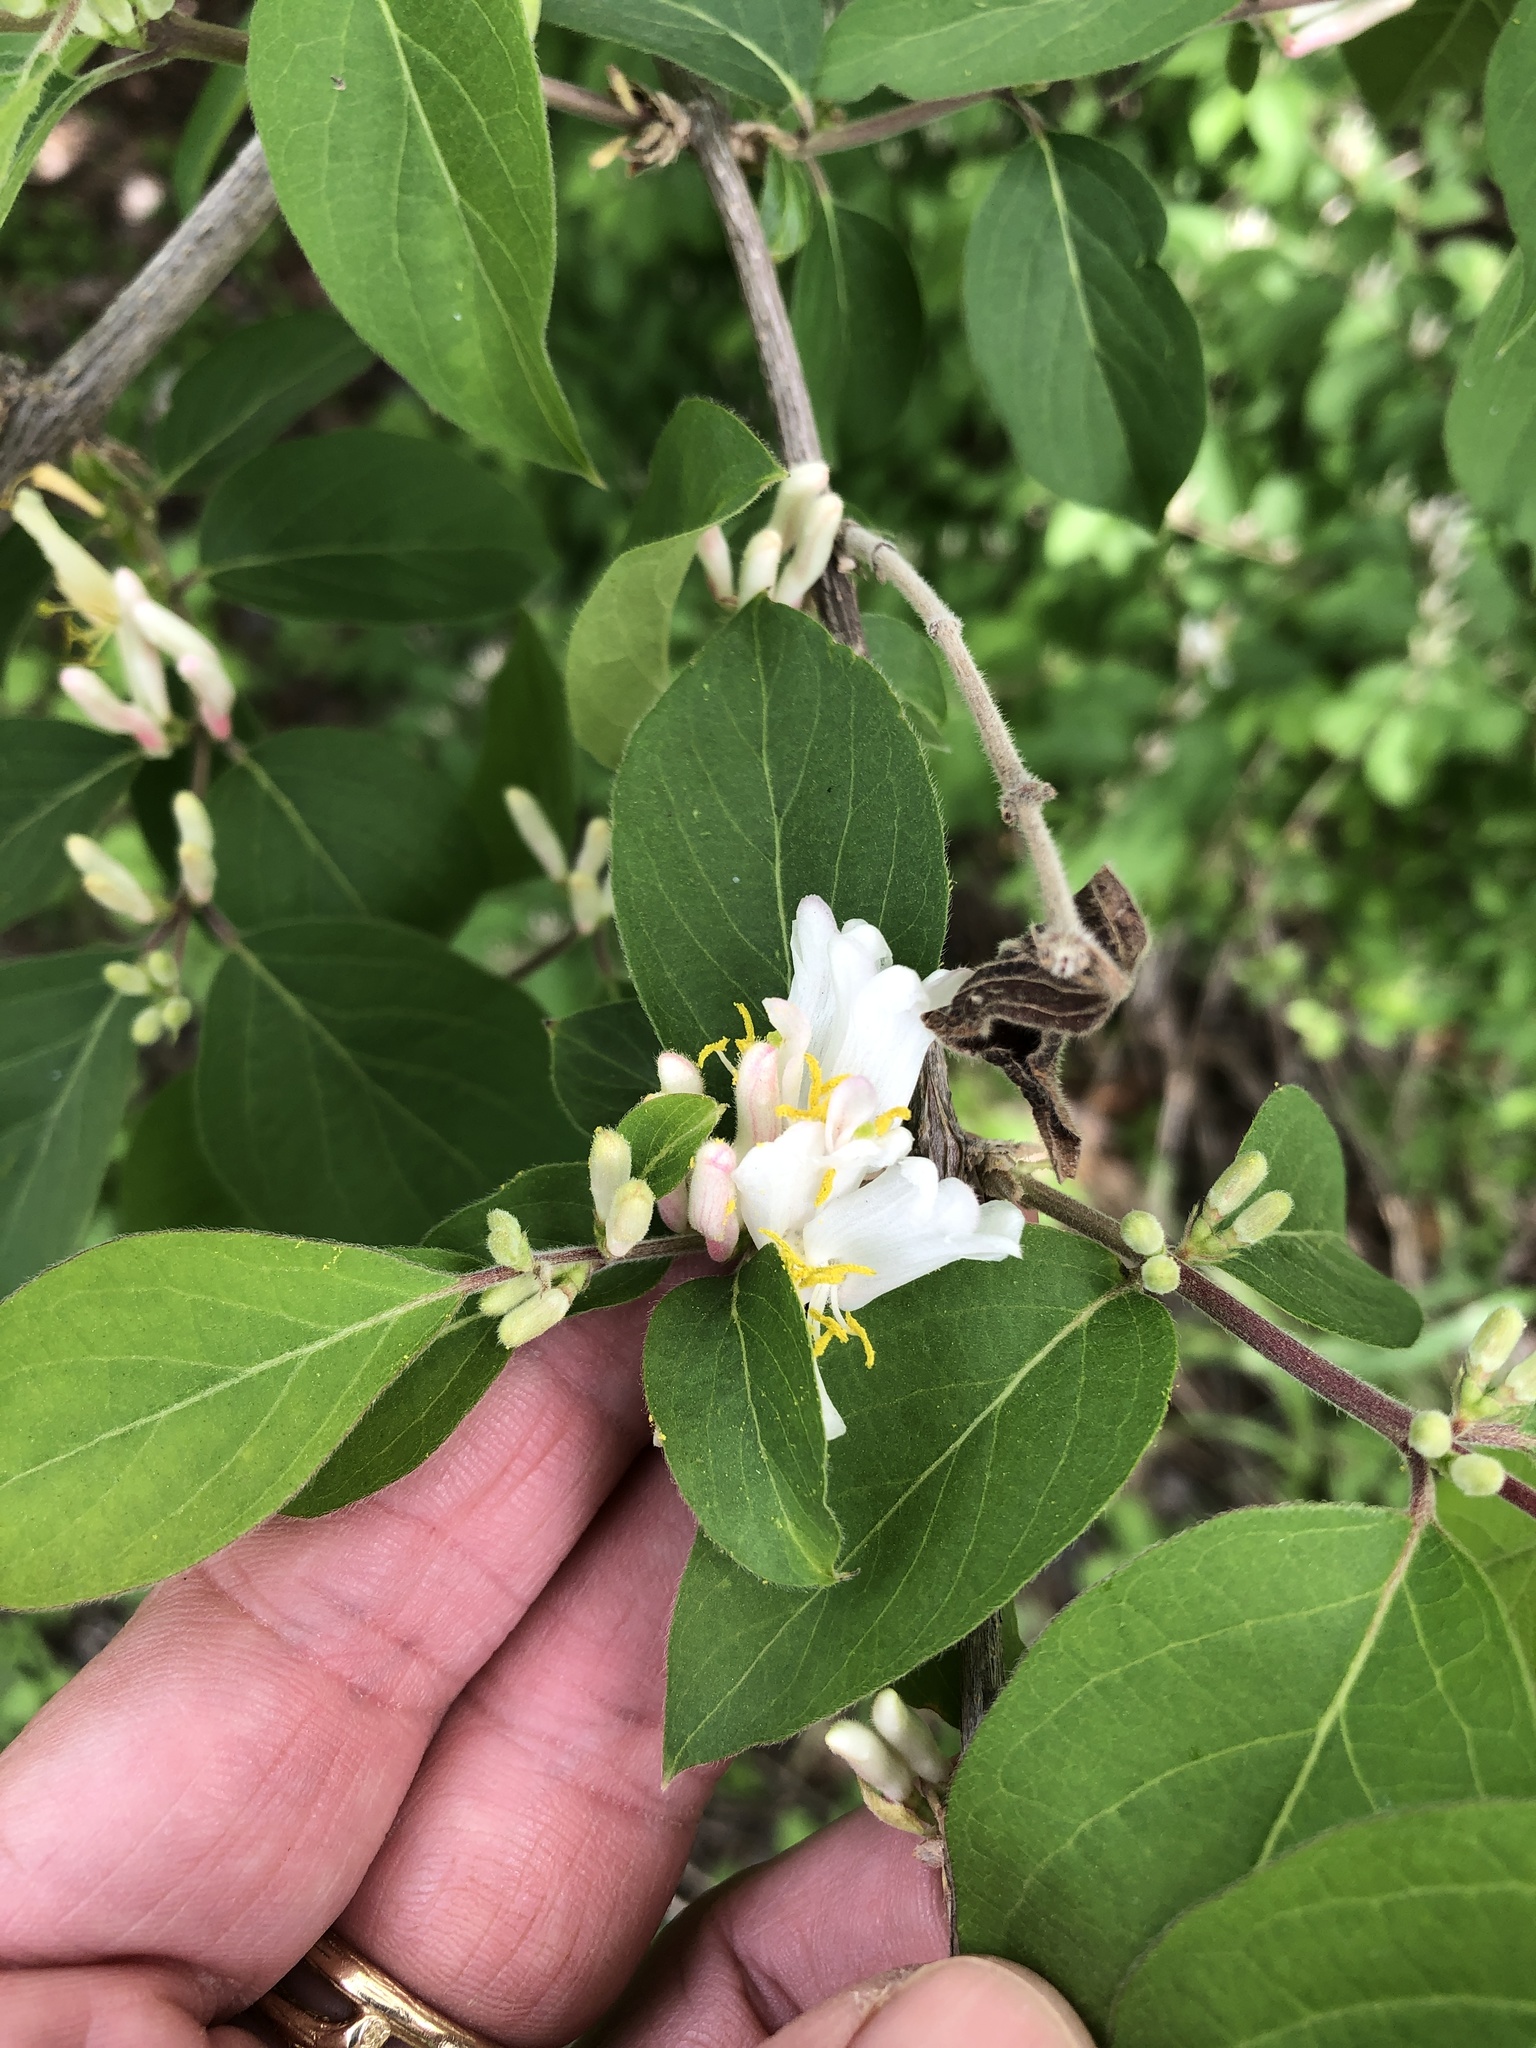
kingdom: Plantae
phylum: Tracheophyta
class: Magnoliopsida
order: Dipsacales
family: Caprifoliaceae
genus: Lonicera
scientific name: Lonicera maackii
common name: Amur honeysuckle
